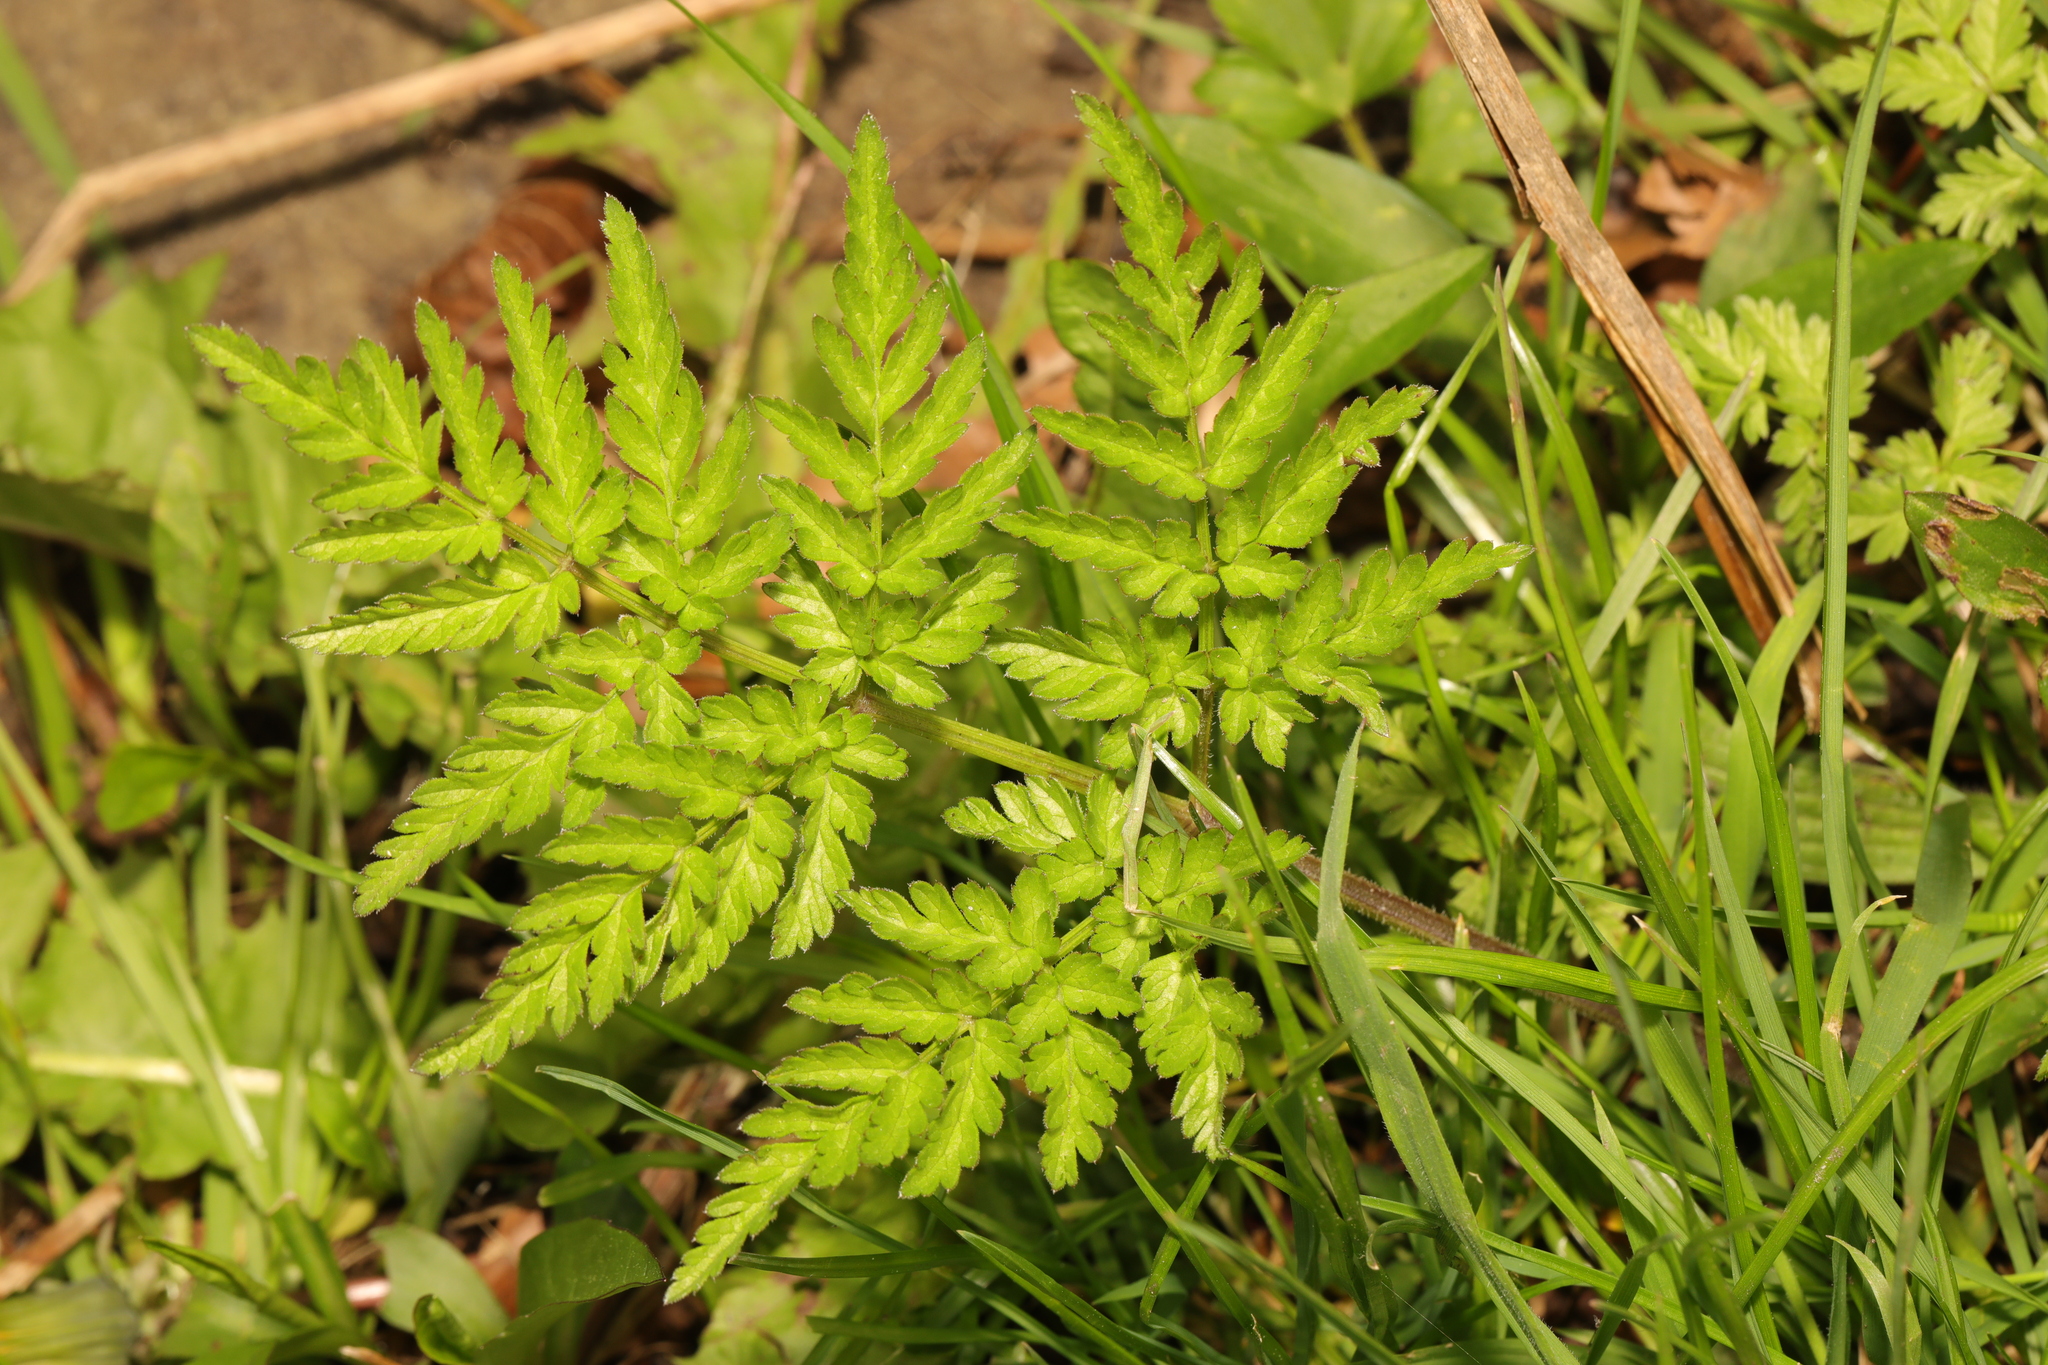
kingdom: Plantae
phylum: Tracheophyta
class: Magnoliopsida
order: Apiales
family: Apiaceae
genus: Anthriscus
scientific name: Anthriscus sylvestris
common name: Cow parsley
